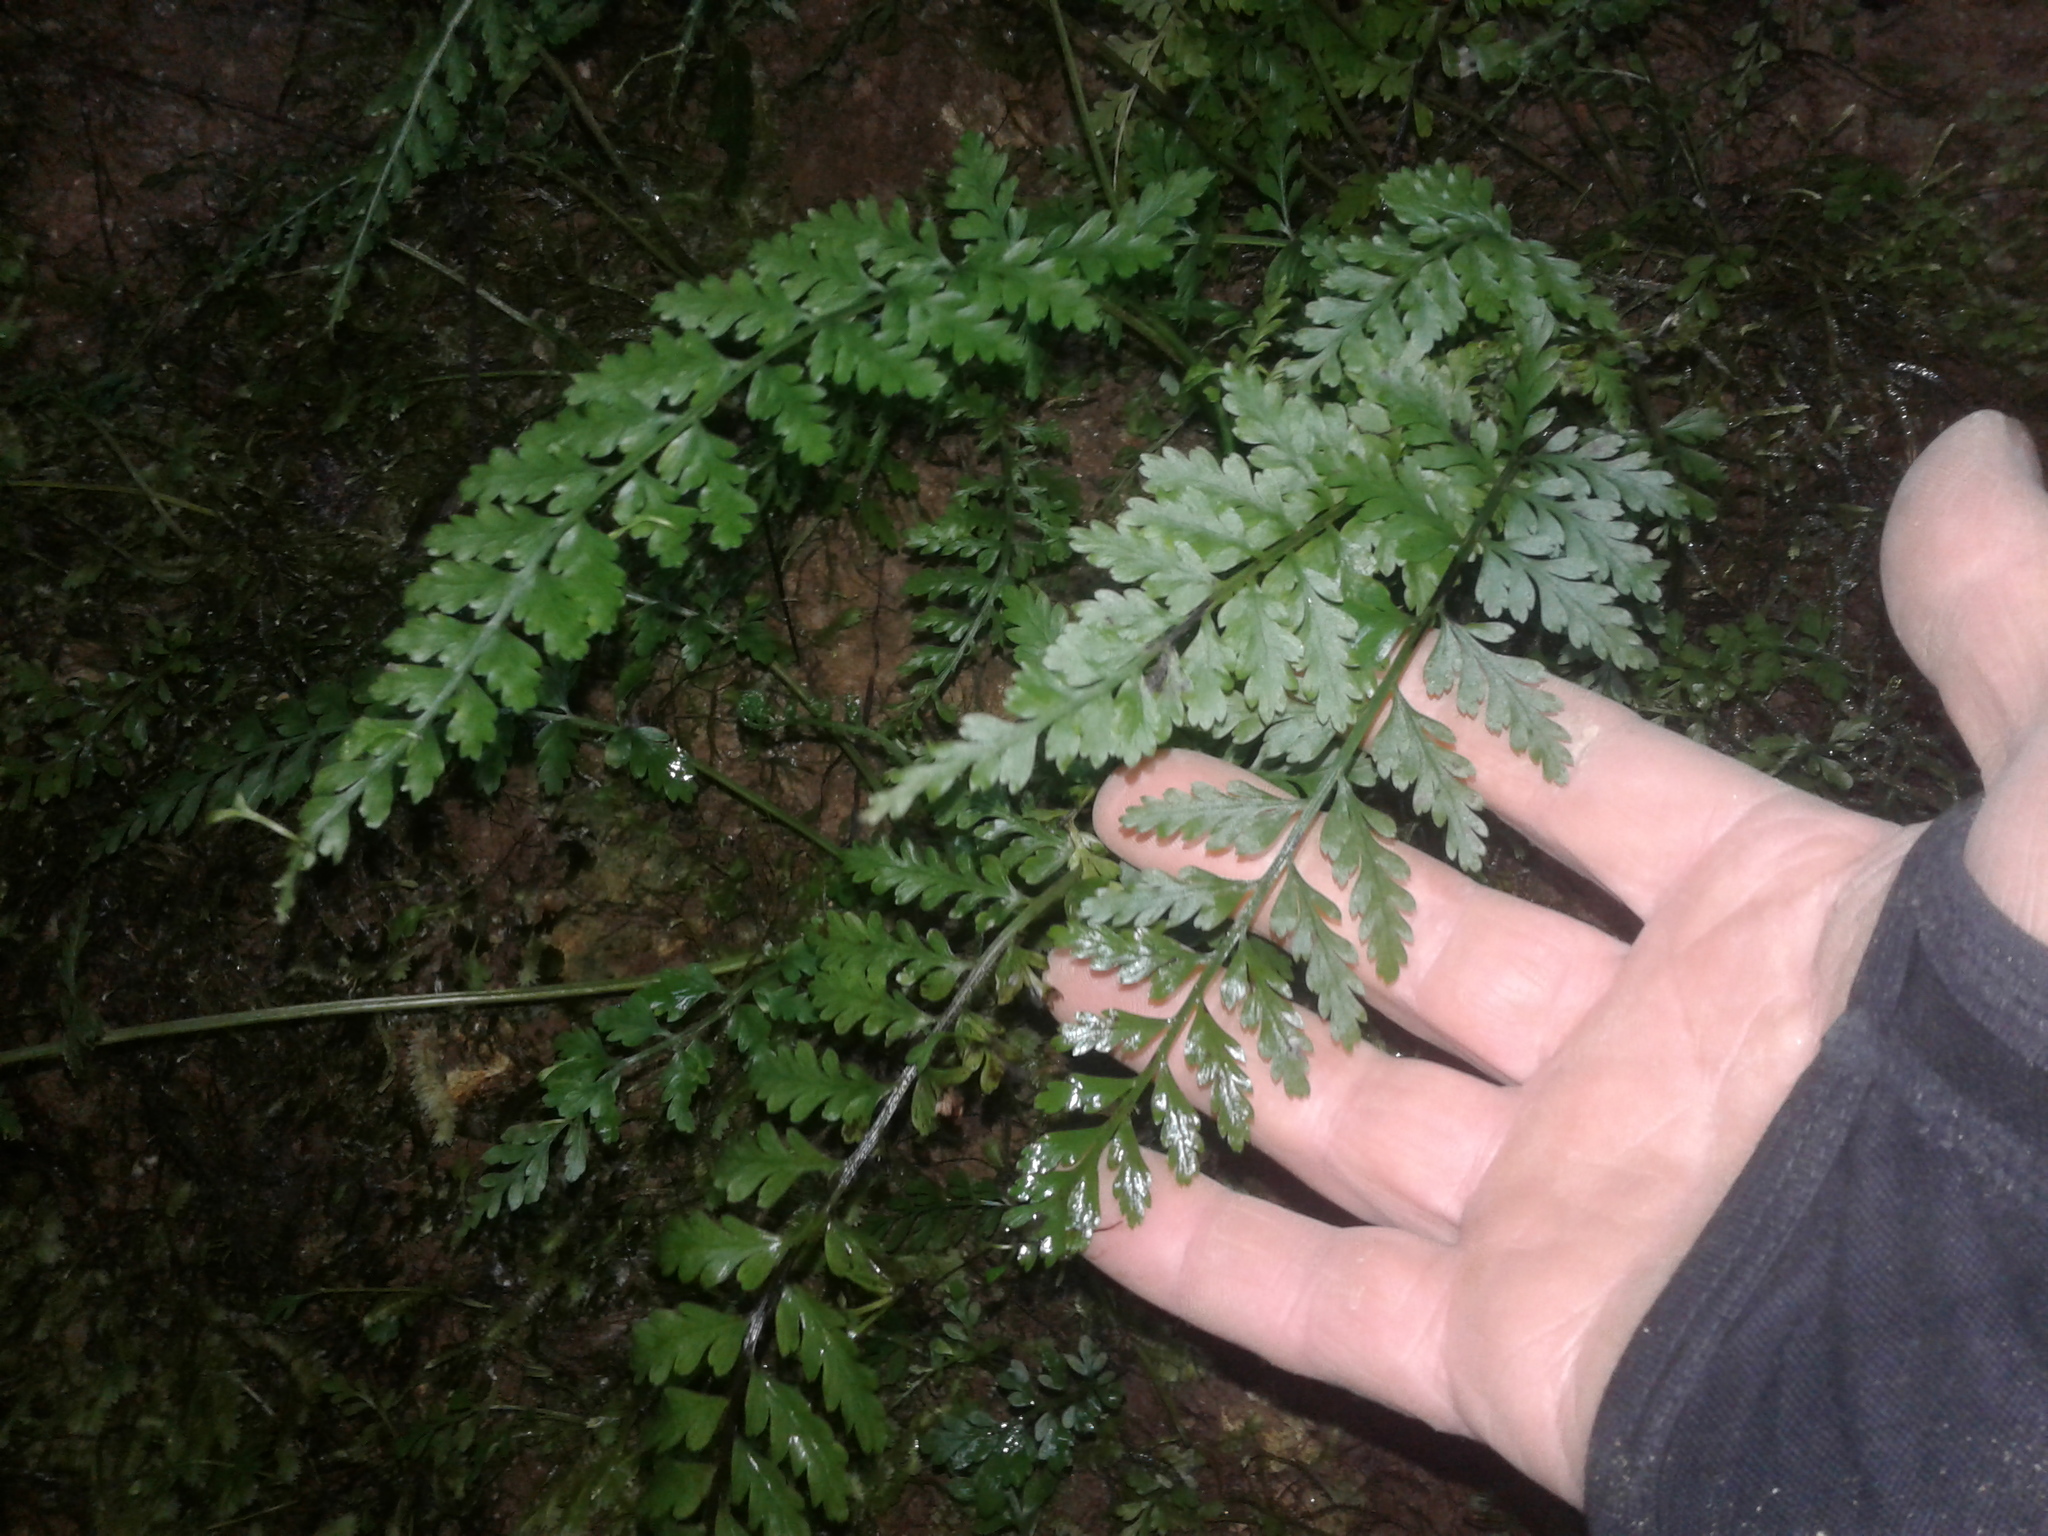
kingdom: Plantae
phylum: Tracheophyta
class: Polypodiopsida
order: Polypodiales
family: Aspleniaceae
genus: Asplenium
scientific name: Asplenium bulbiferum
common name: Mother fern
